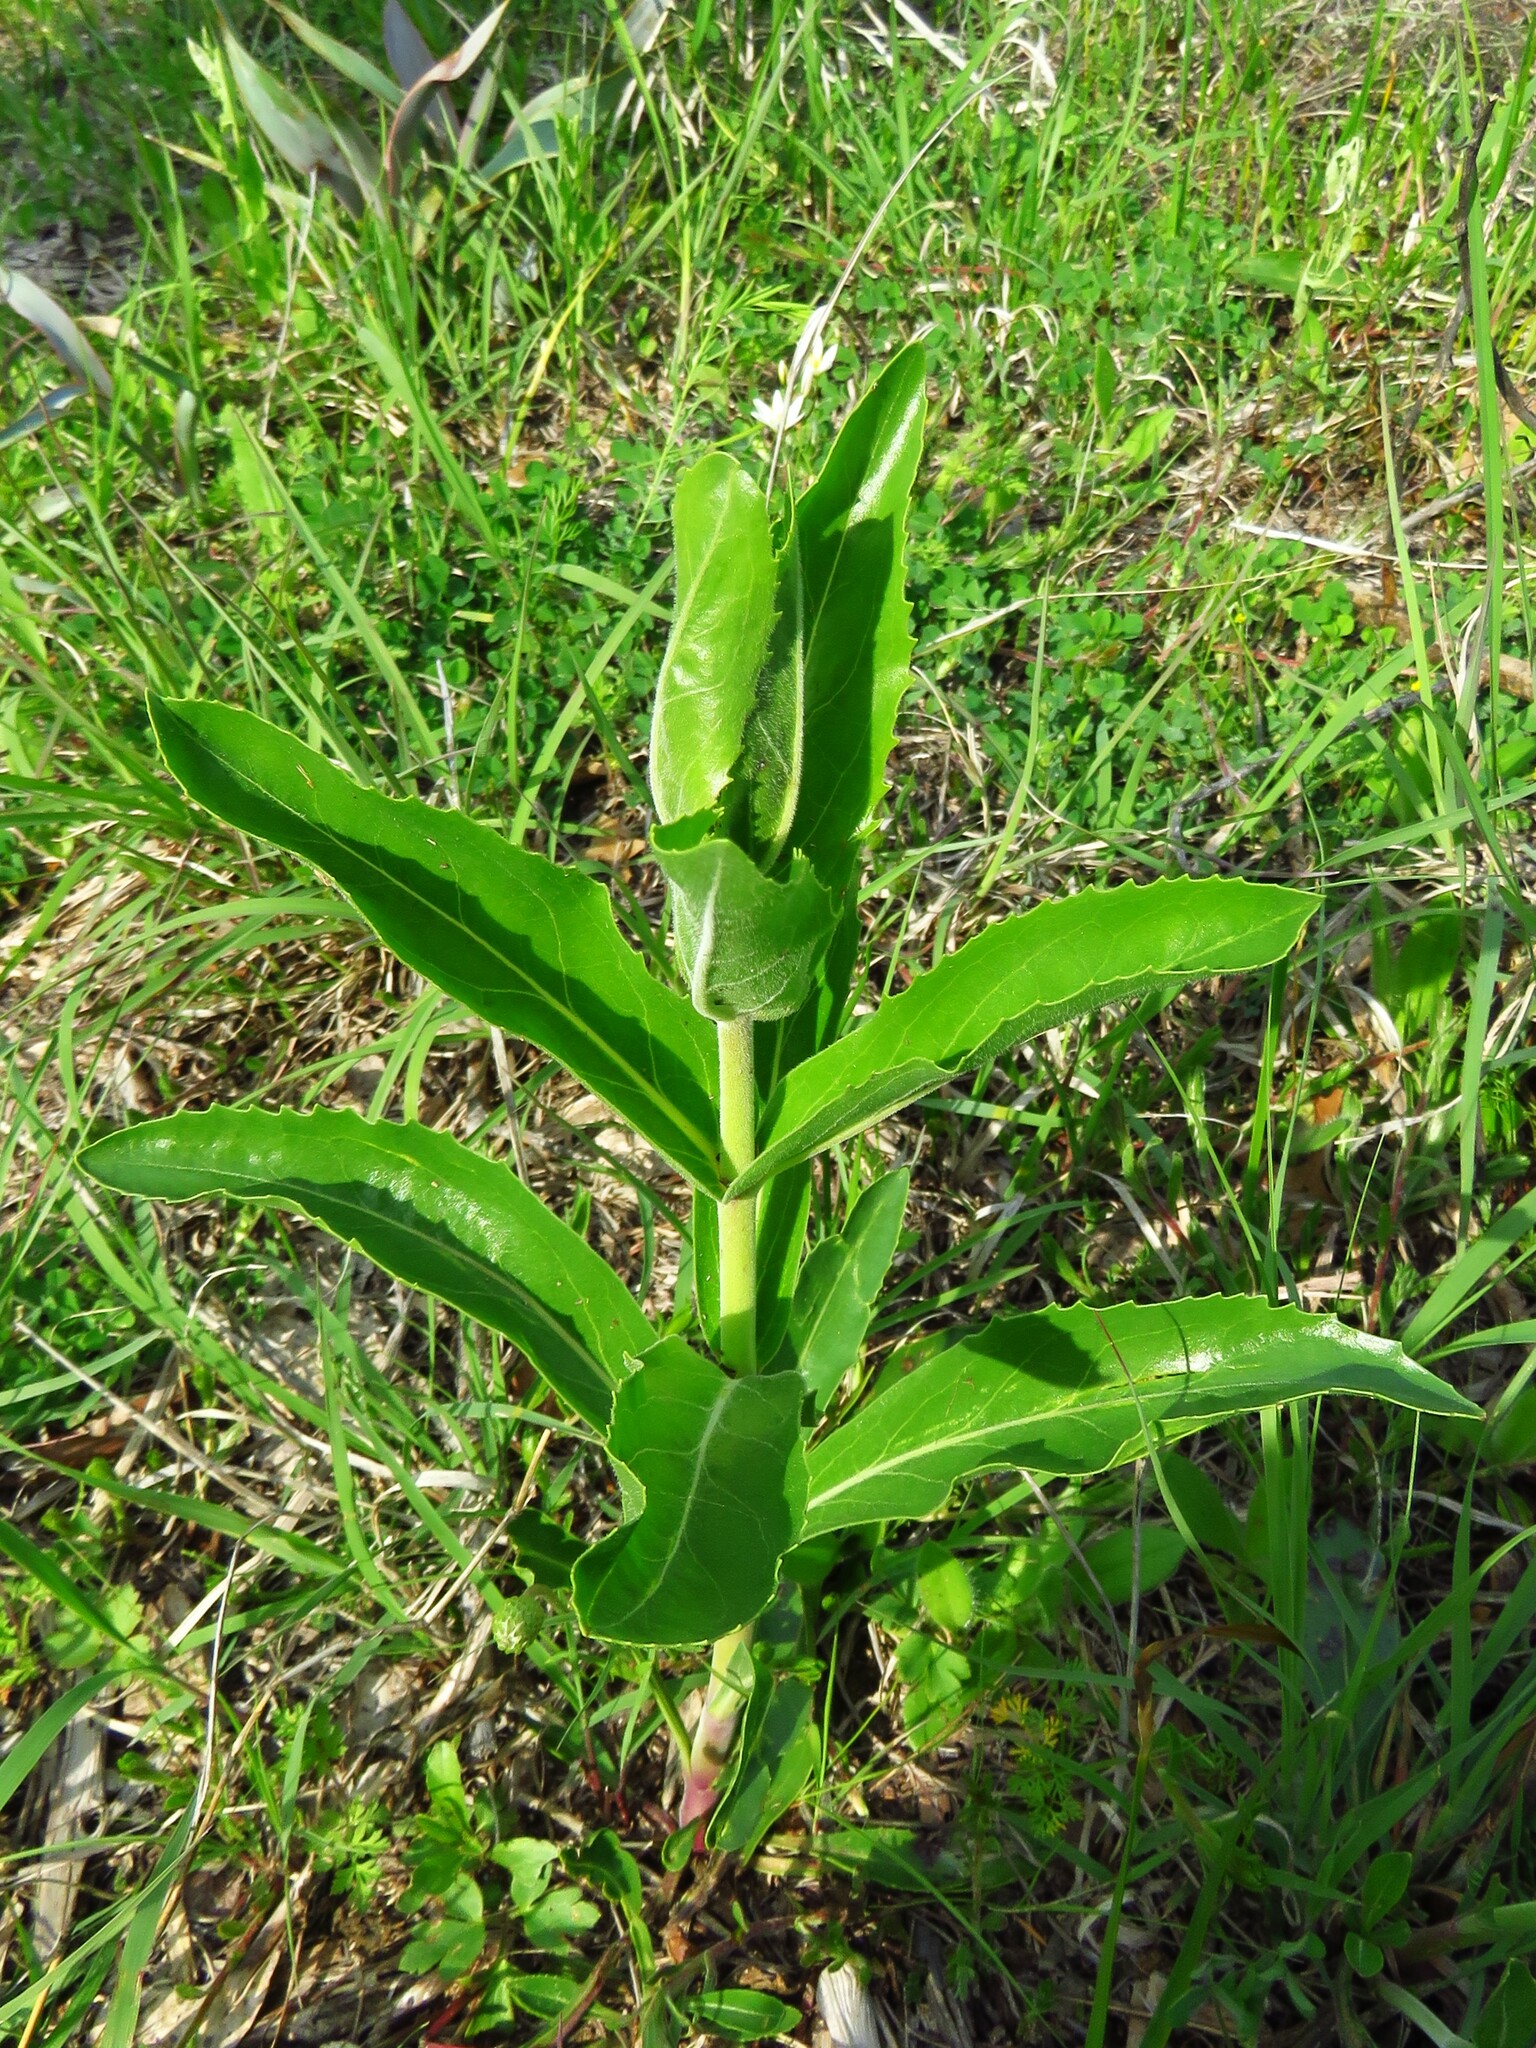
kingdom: Plantae
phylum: Tracheophyta
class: Magnoliopsida
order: Lamiales
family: Plantaginaceae
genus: Penstemon
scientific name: Penstemon cobaea
